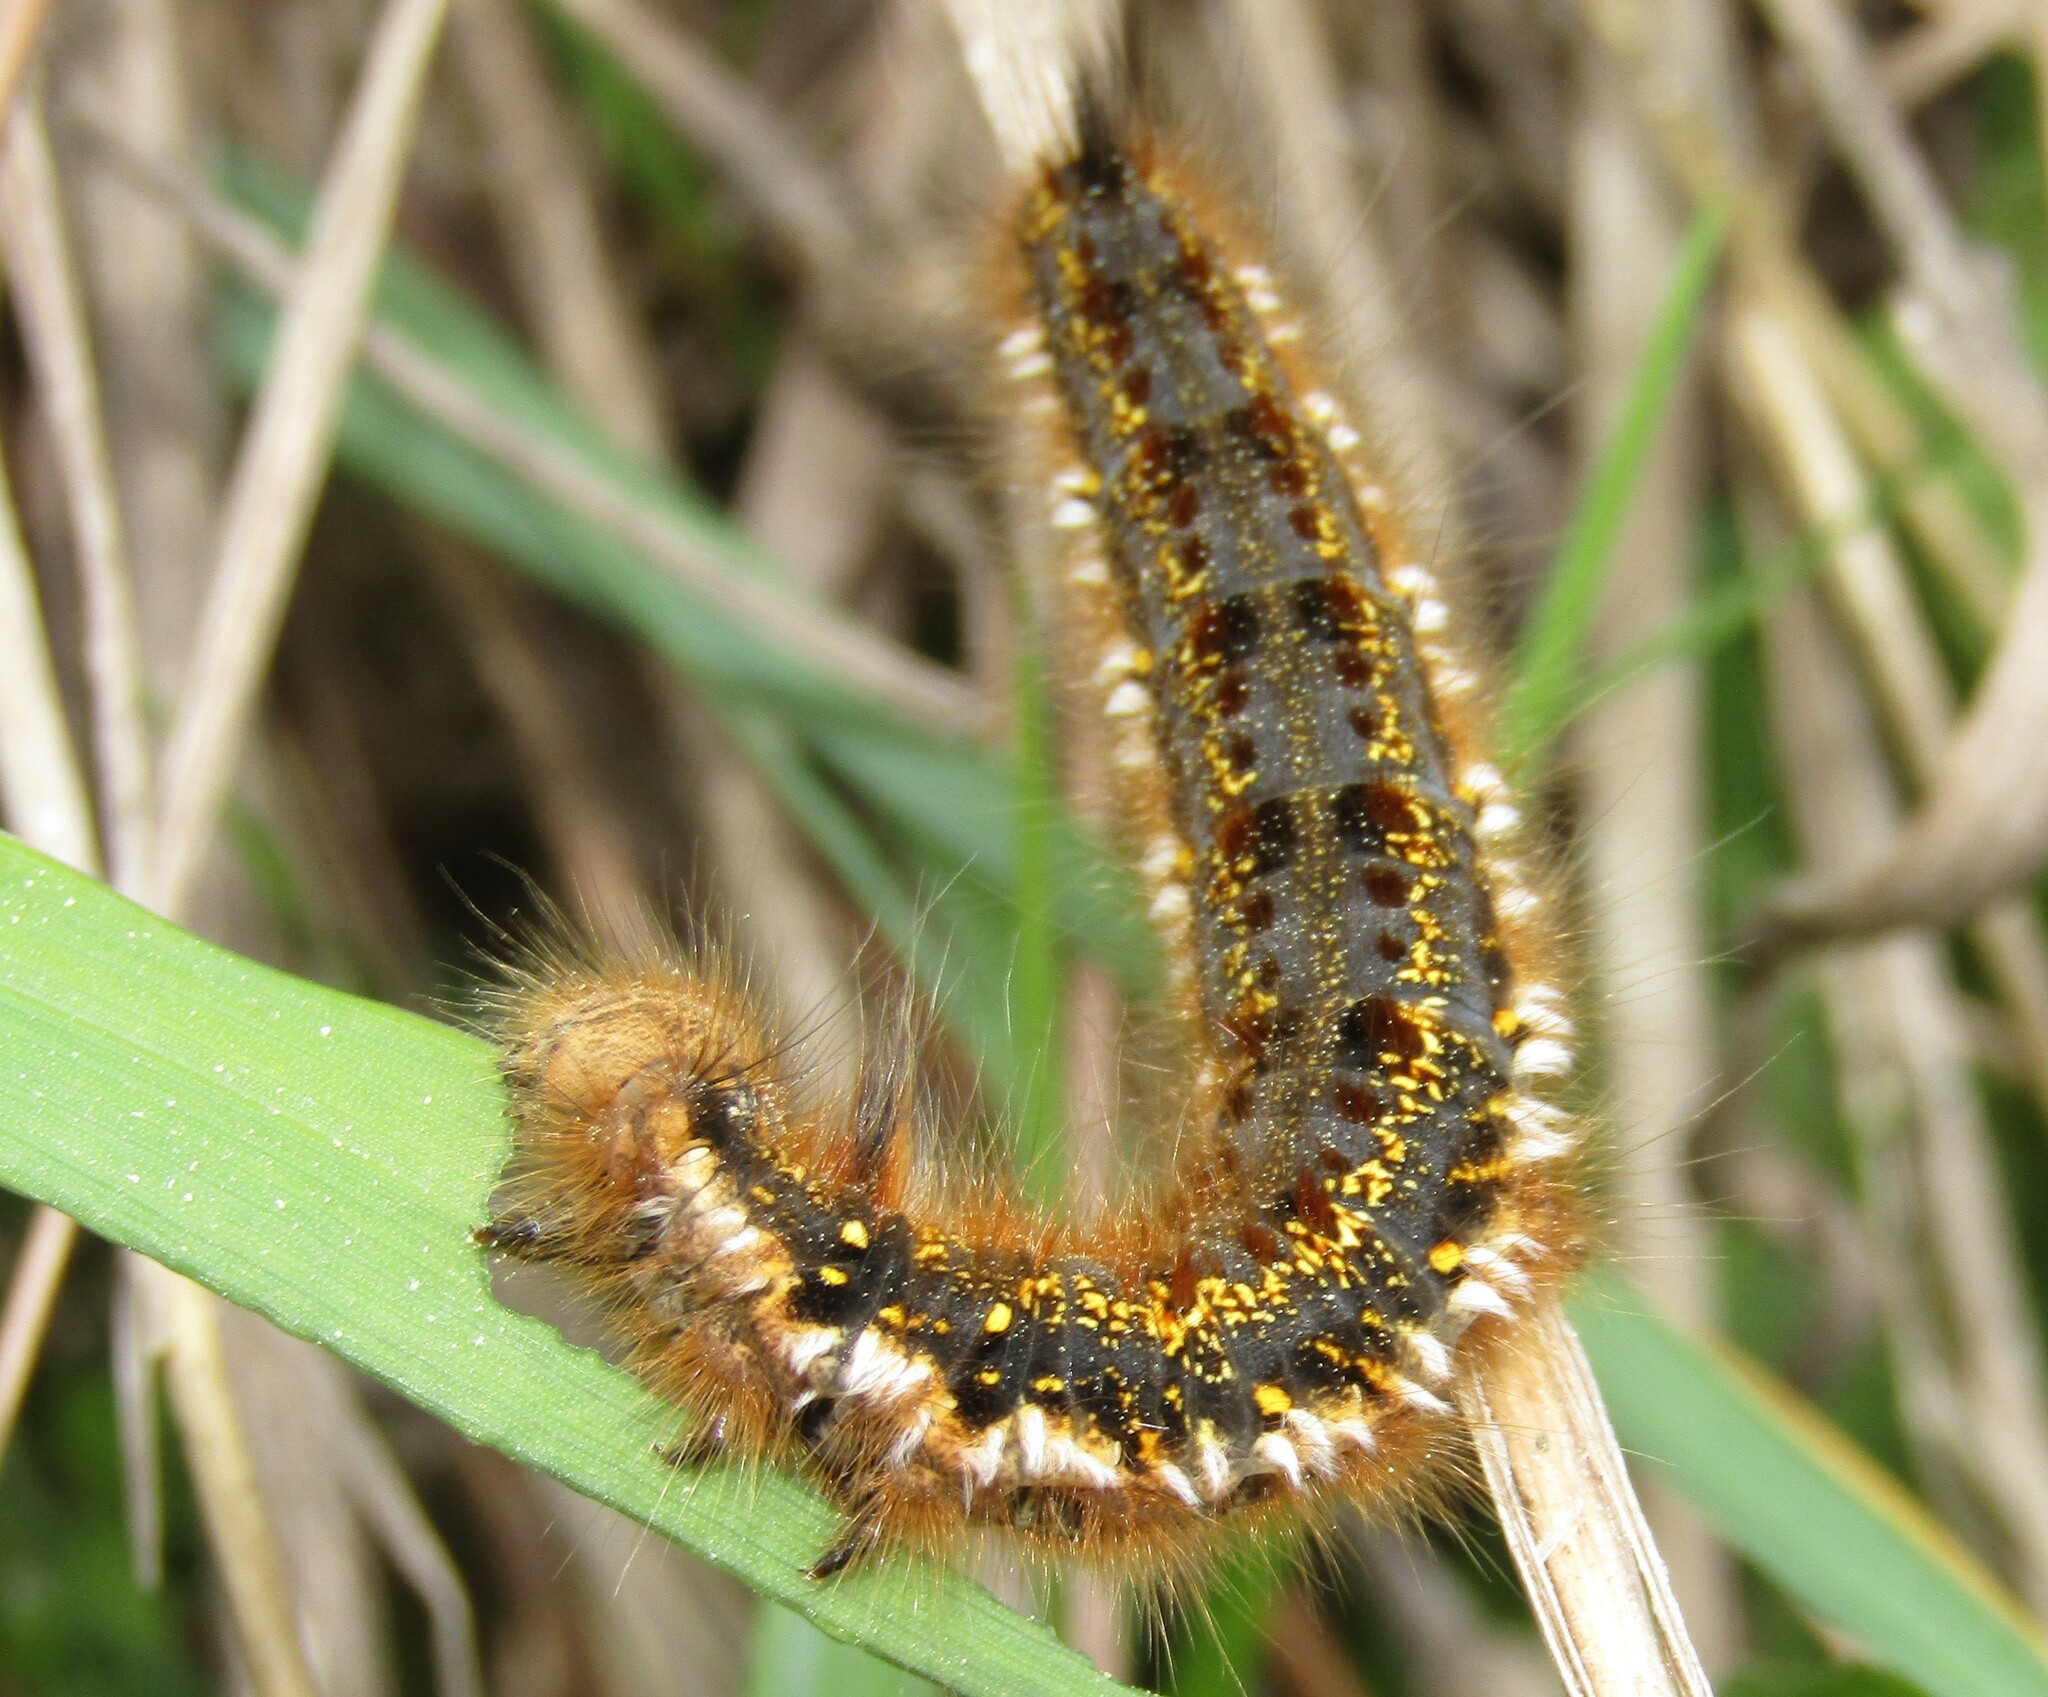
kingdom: Animalia
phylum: Arthropoda
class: Insecta
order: Lepidoptera
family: Lasiocampidae
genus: Euthrix
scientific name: Euthrix potatoria
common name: Drinker
